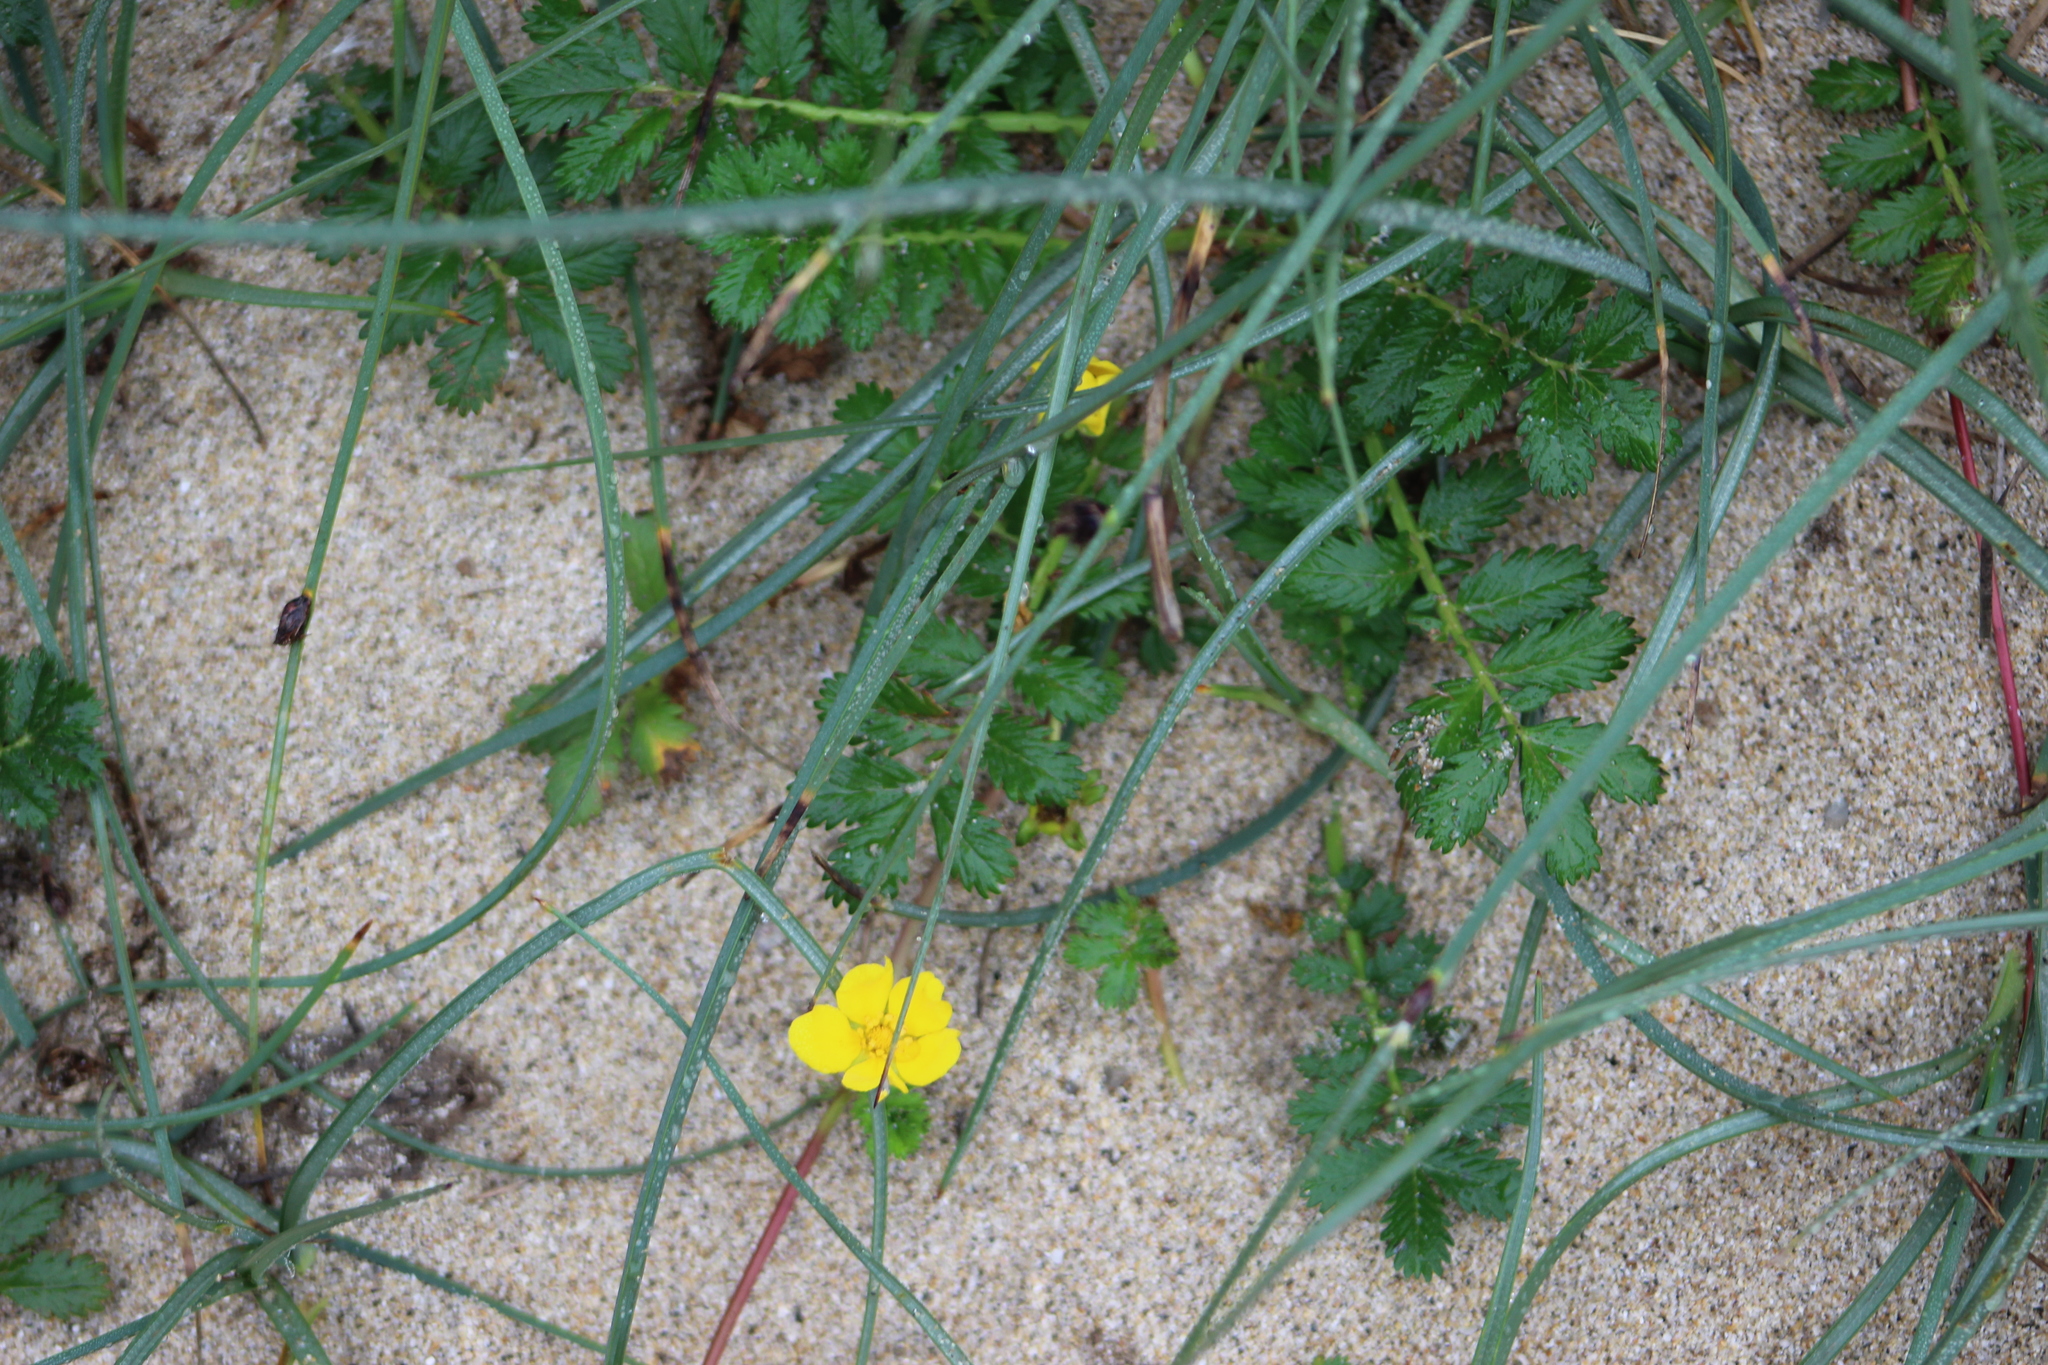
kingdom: Plantae
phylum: Tracheophyta
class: Magnoliopsida
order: Rosales
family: Rosaceae
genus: Argentina
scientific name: Argentina anserina
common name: Common silverweed
